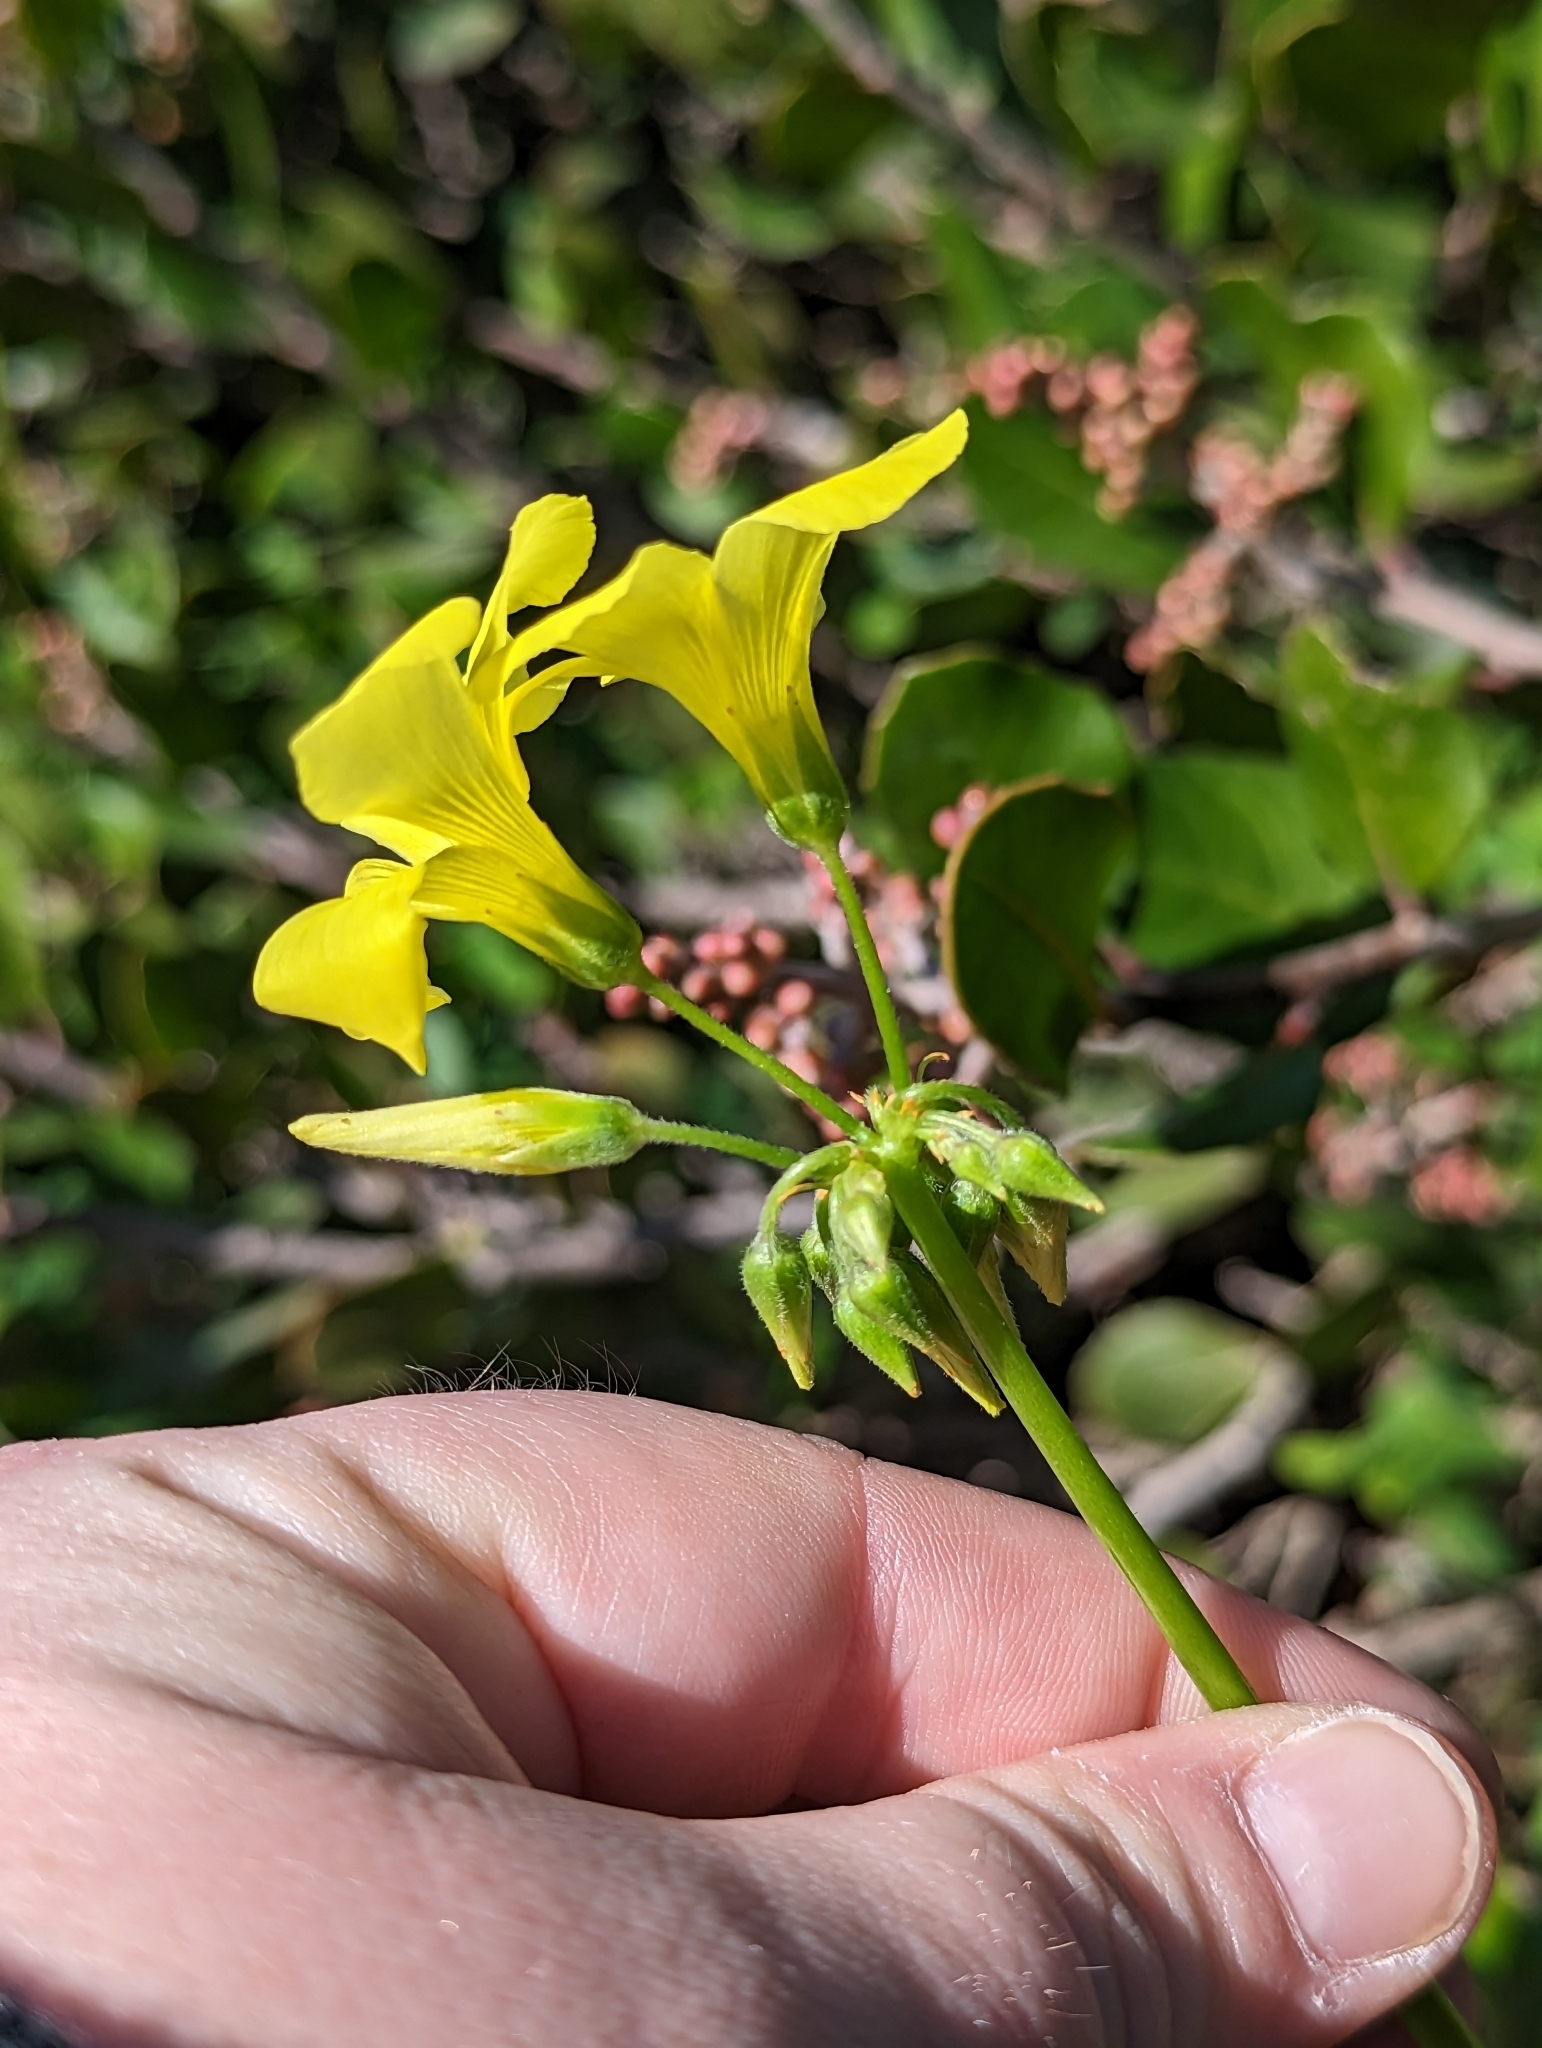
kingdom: Plantae
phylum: Tracheophyta
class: Magnoliopsida
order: Oxalidales
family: Oxalidaceae
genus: Oxalis
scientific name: Oxalis pes-caprae
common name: Bermuda-buttercup
